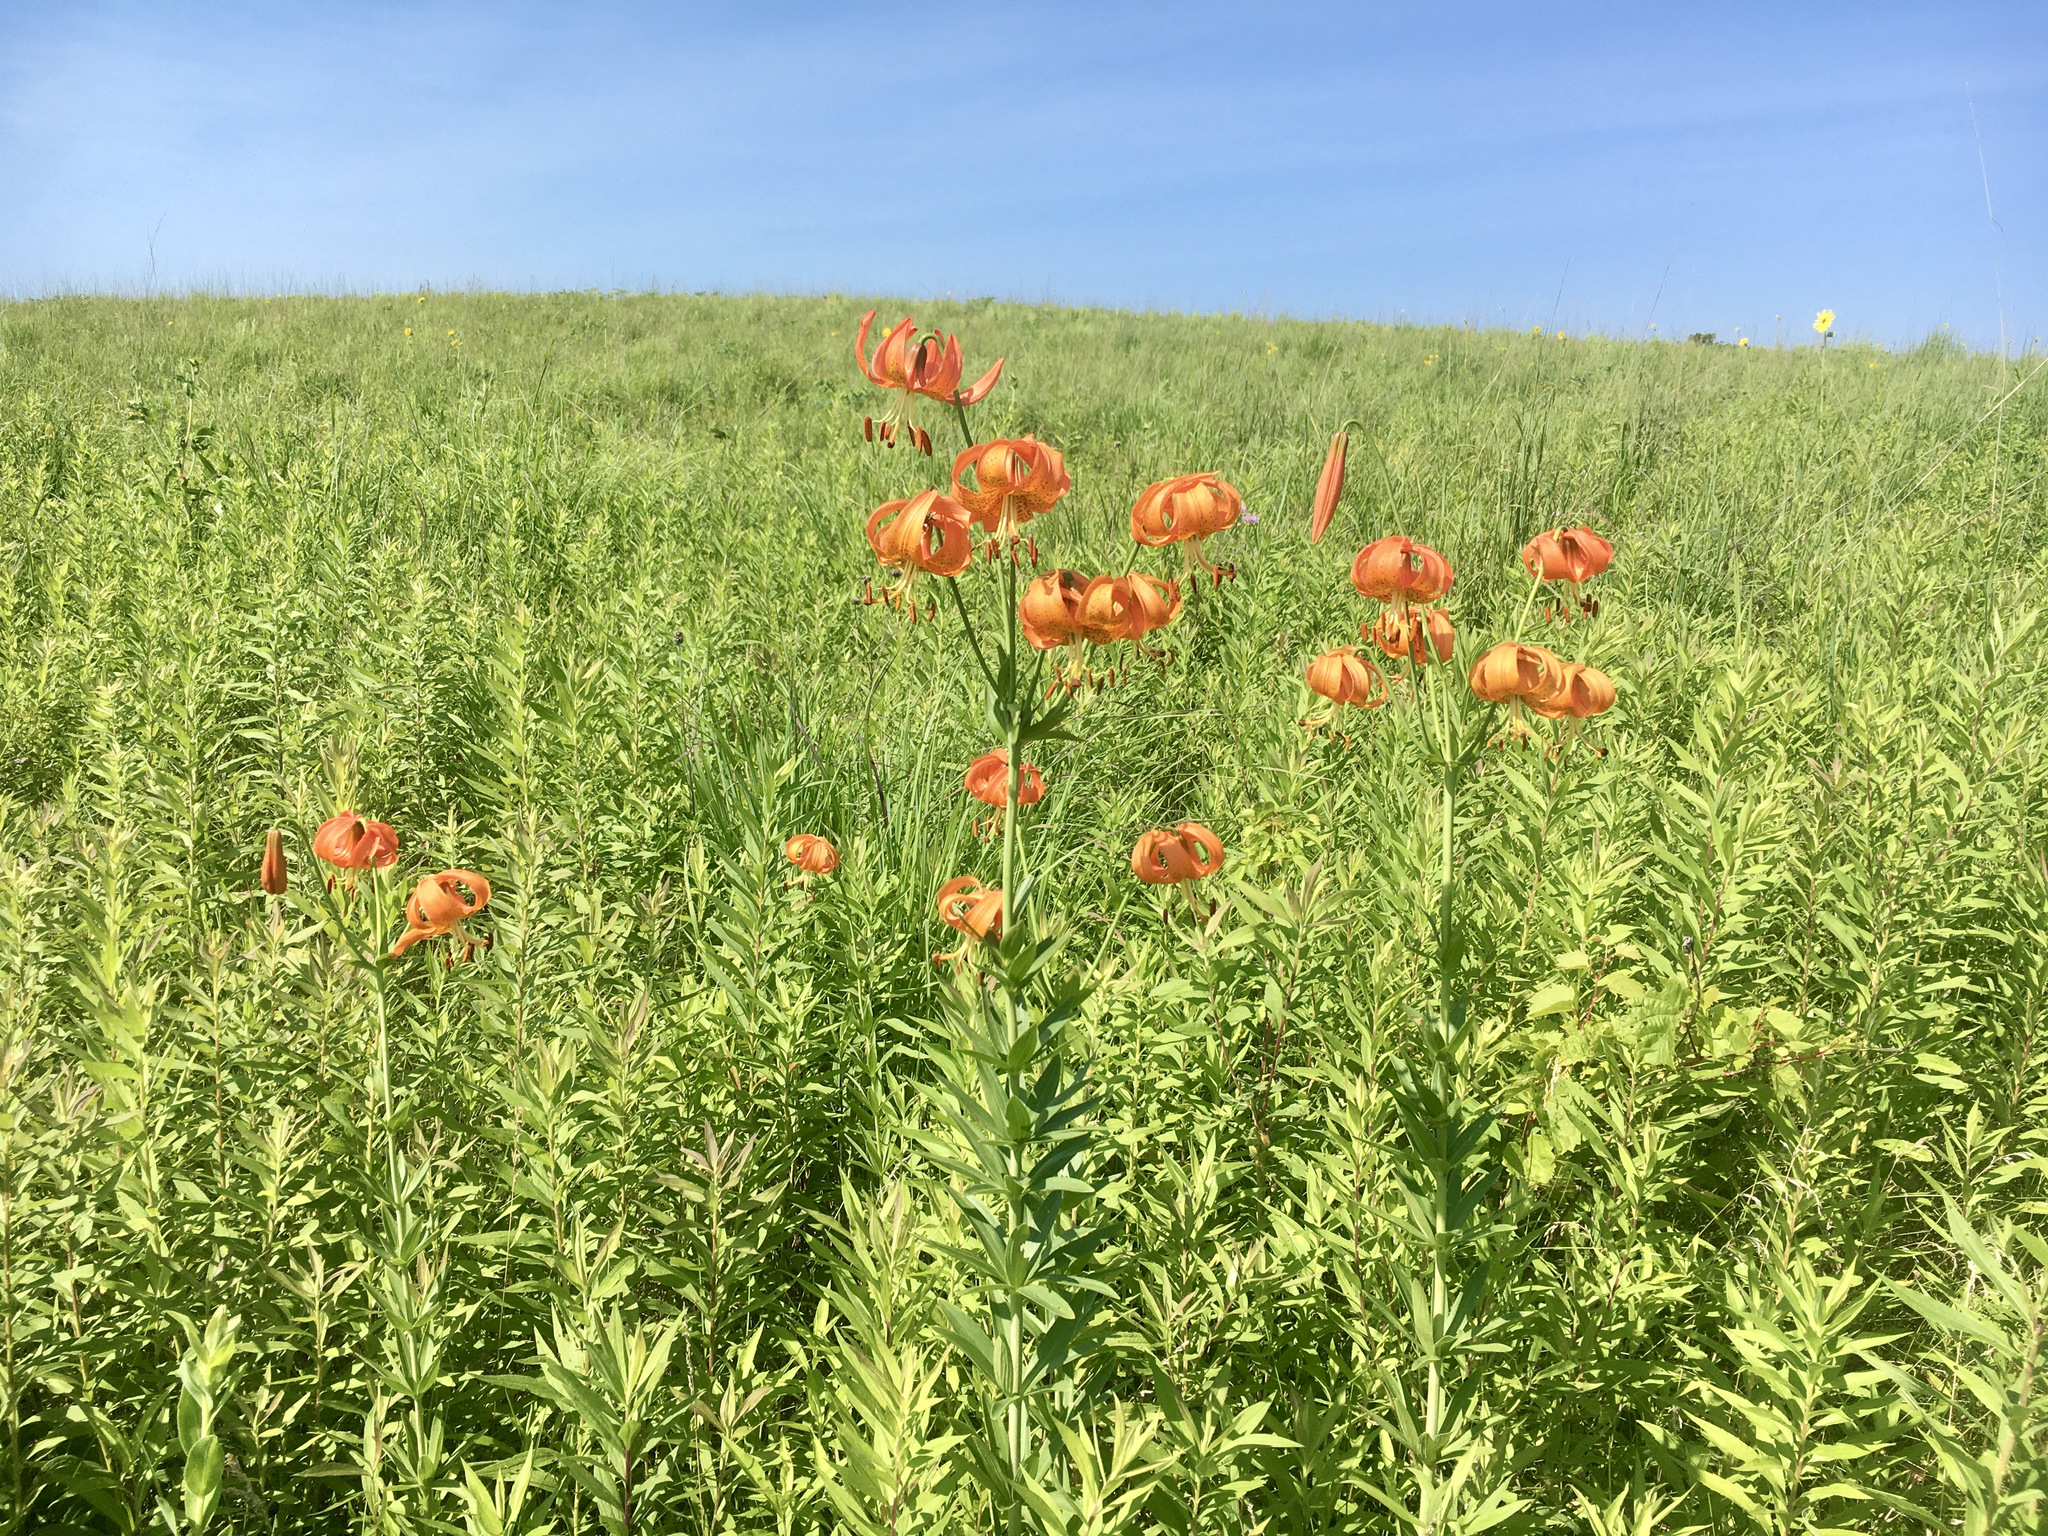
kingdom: Plantae
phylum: Tracheophyta
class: Liliopsida
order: Liliales
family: Liliaceae
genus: Lilium
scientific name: Lilium michiganense
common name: Michigan lily
